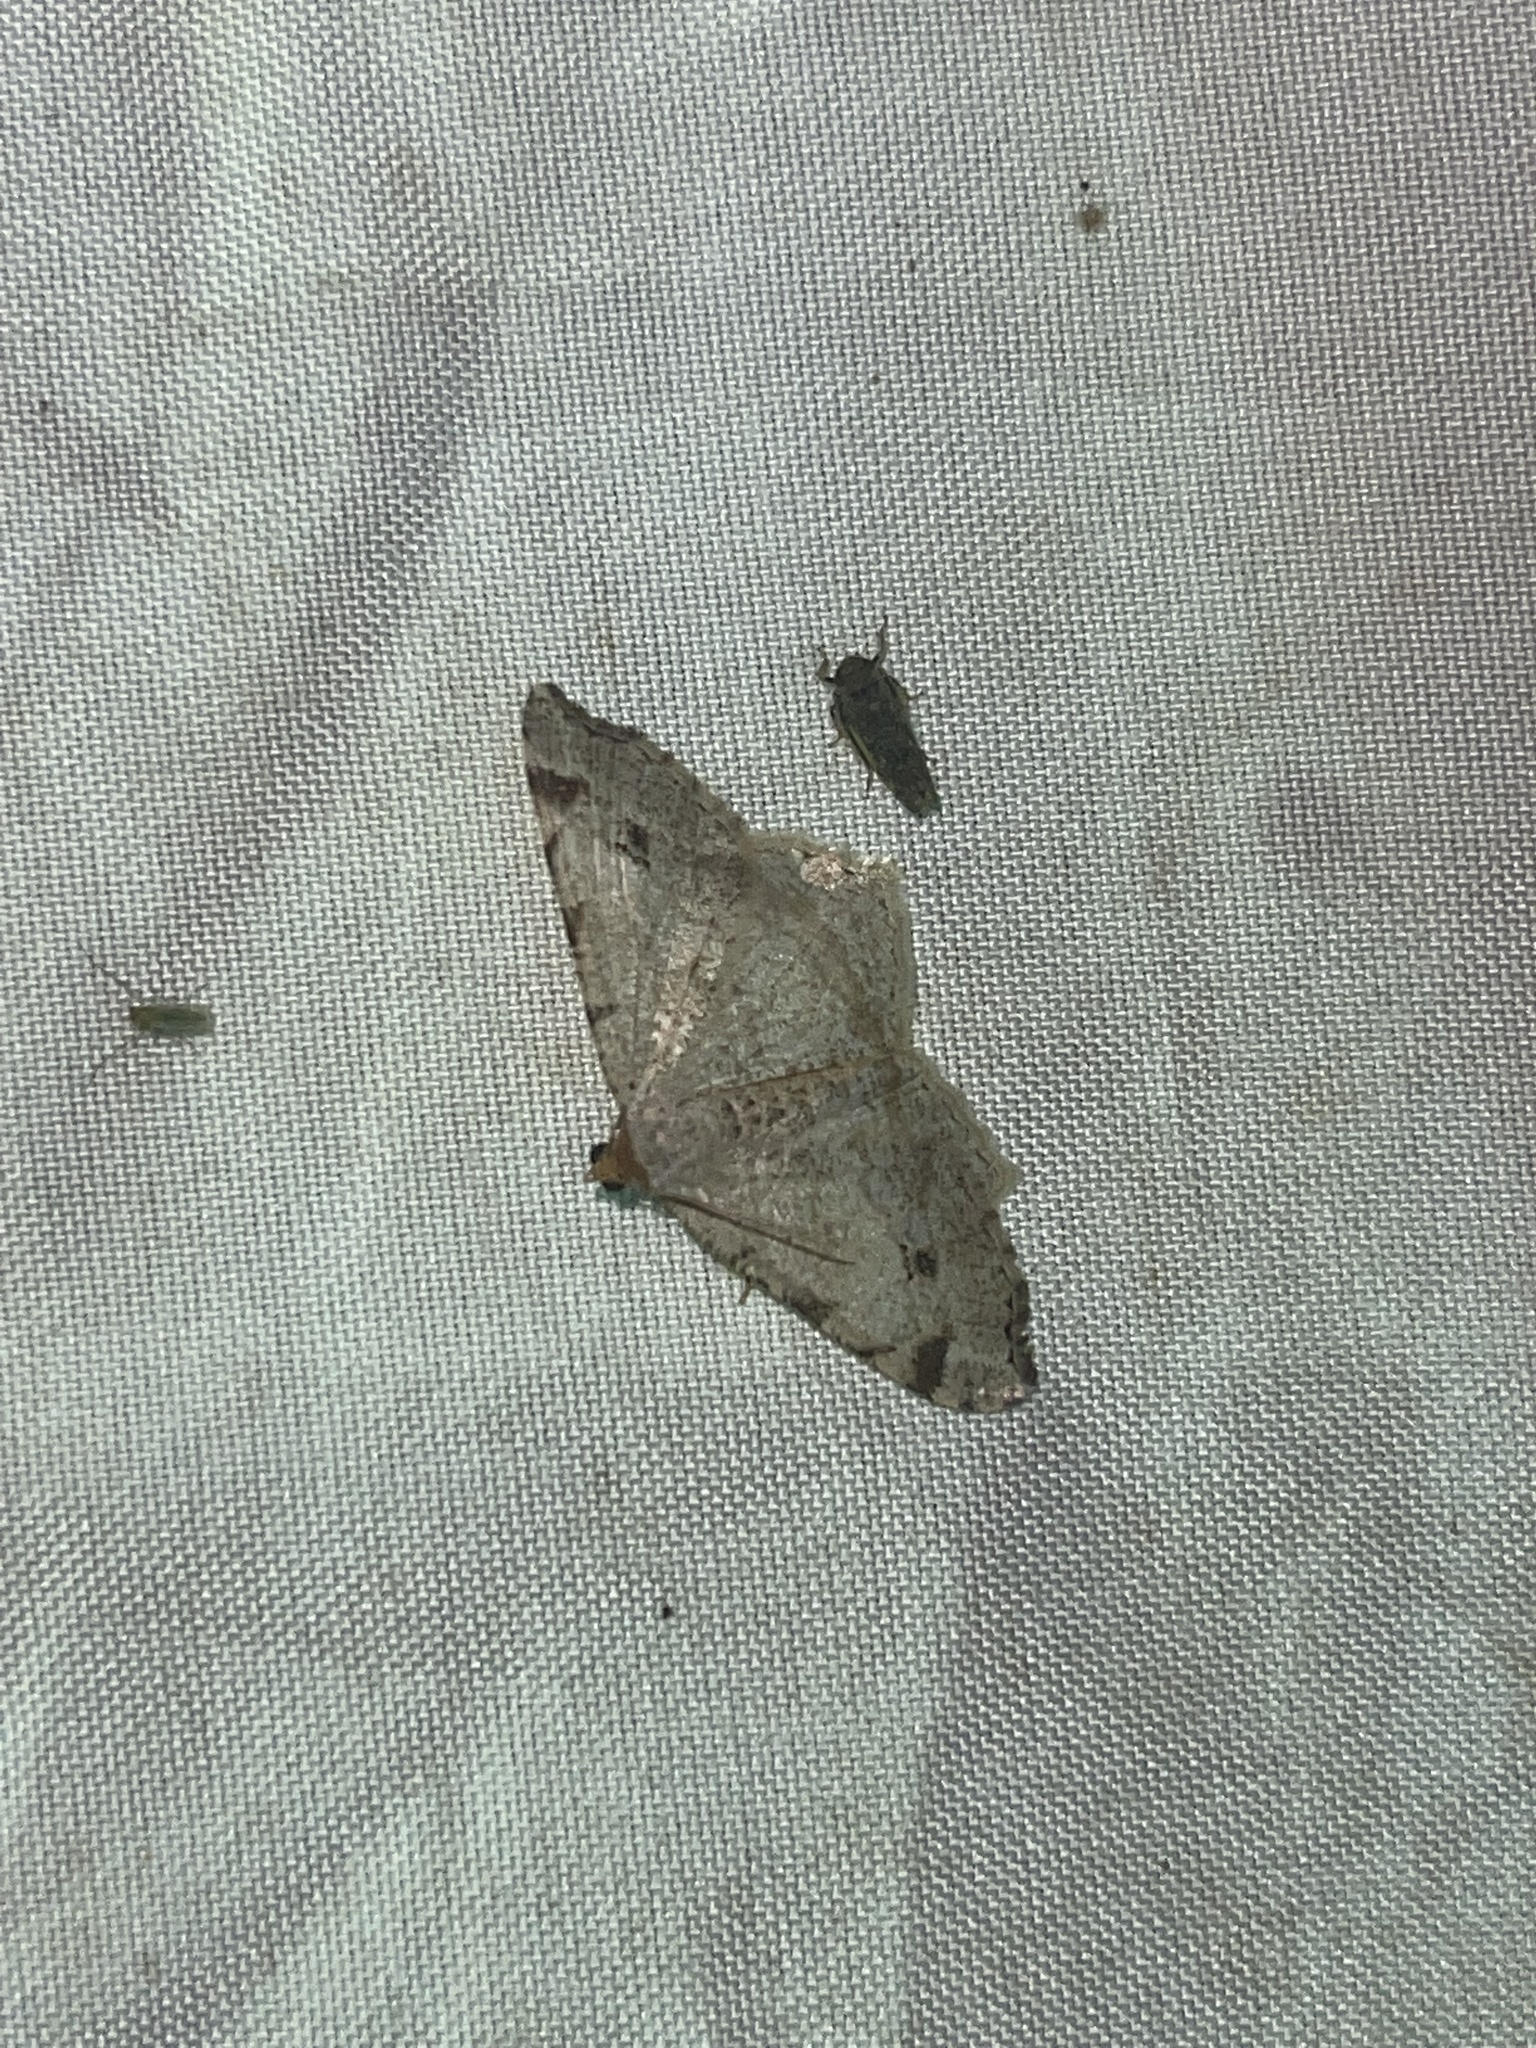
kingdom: Animalia
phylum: Arthropoda
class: Insecta
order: Lepidoptera
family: Geometridae
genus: Macaria
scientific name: Macaria bisignata
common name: Red-headed inchworm
